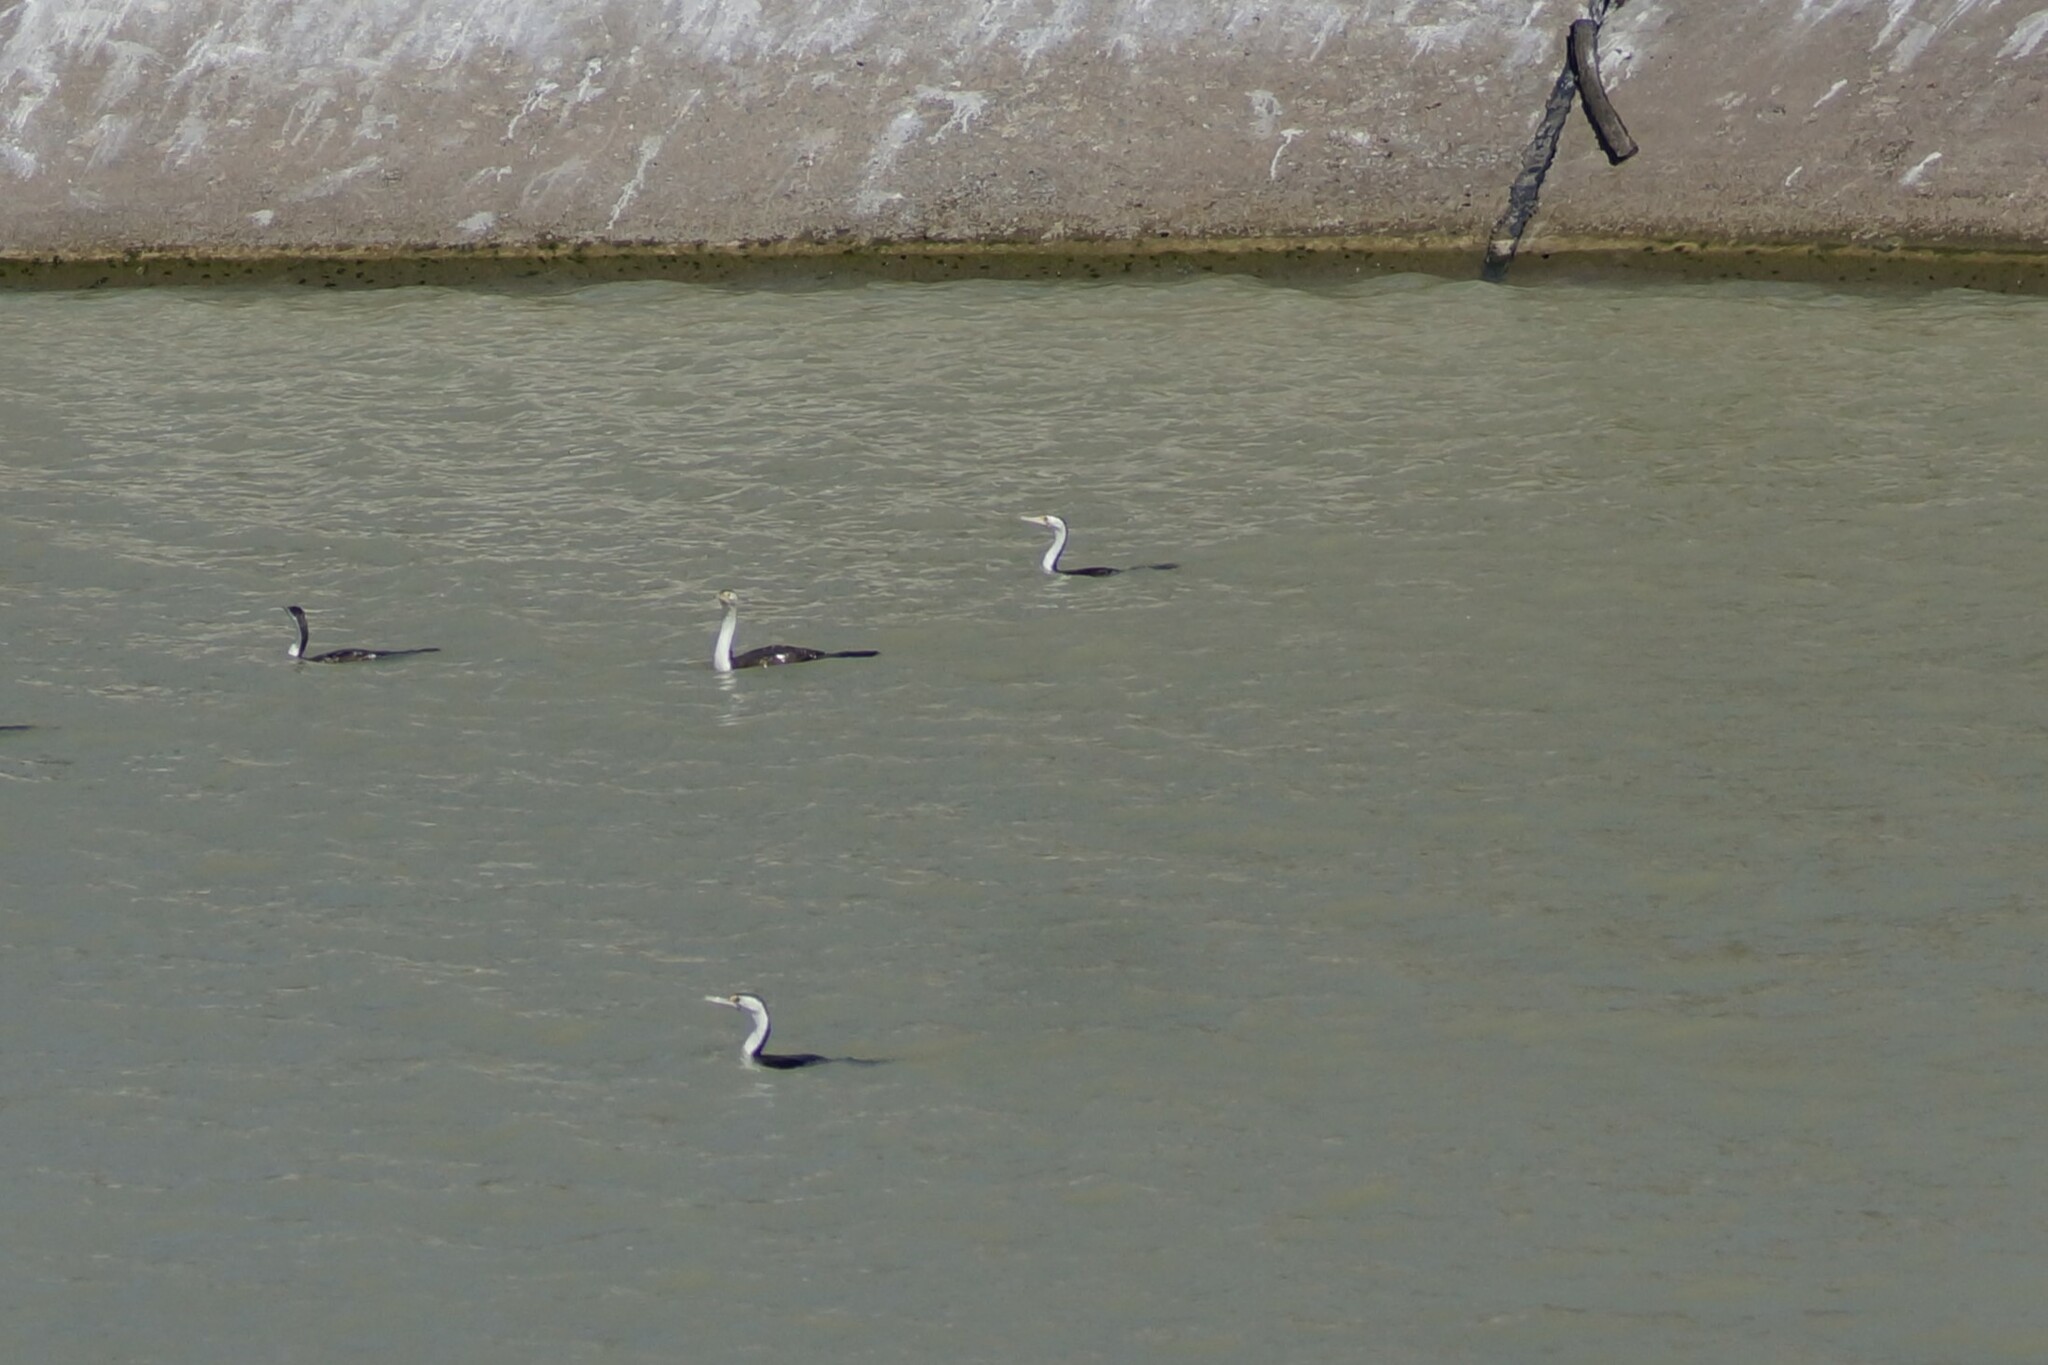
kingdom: Animalia
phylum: Chordata
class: Aves
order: Suliformes
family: Phalacrocoracidae
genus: Phalacrocorax
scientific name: Phalacrocorax varius
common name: Pied cormorant
